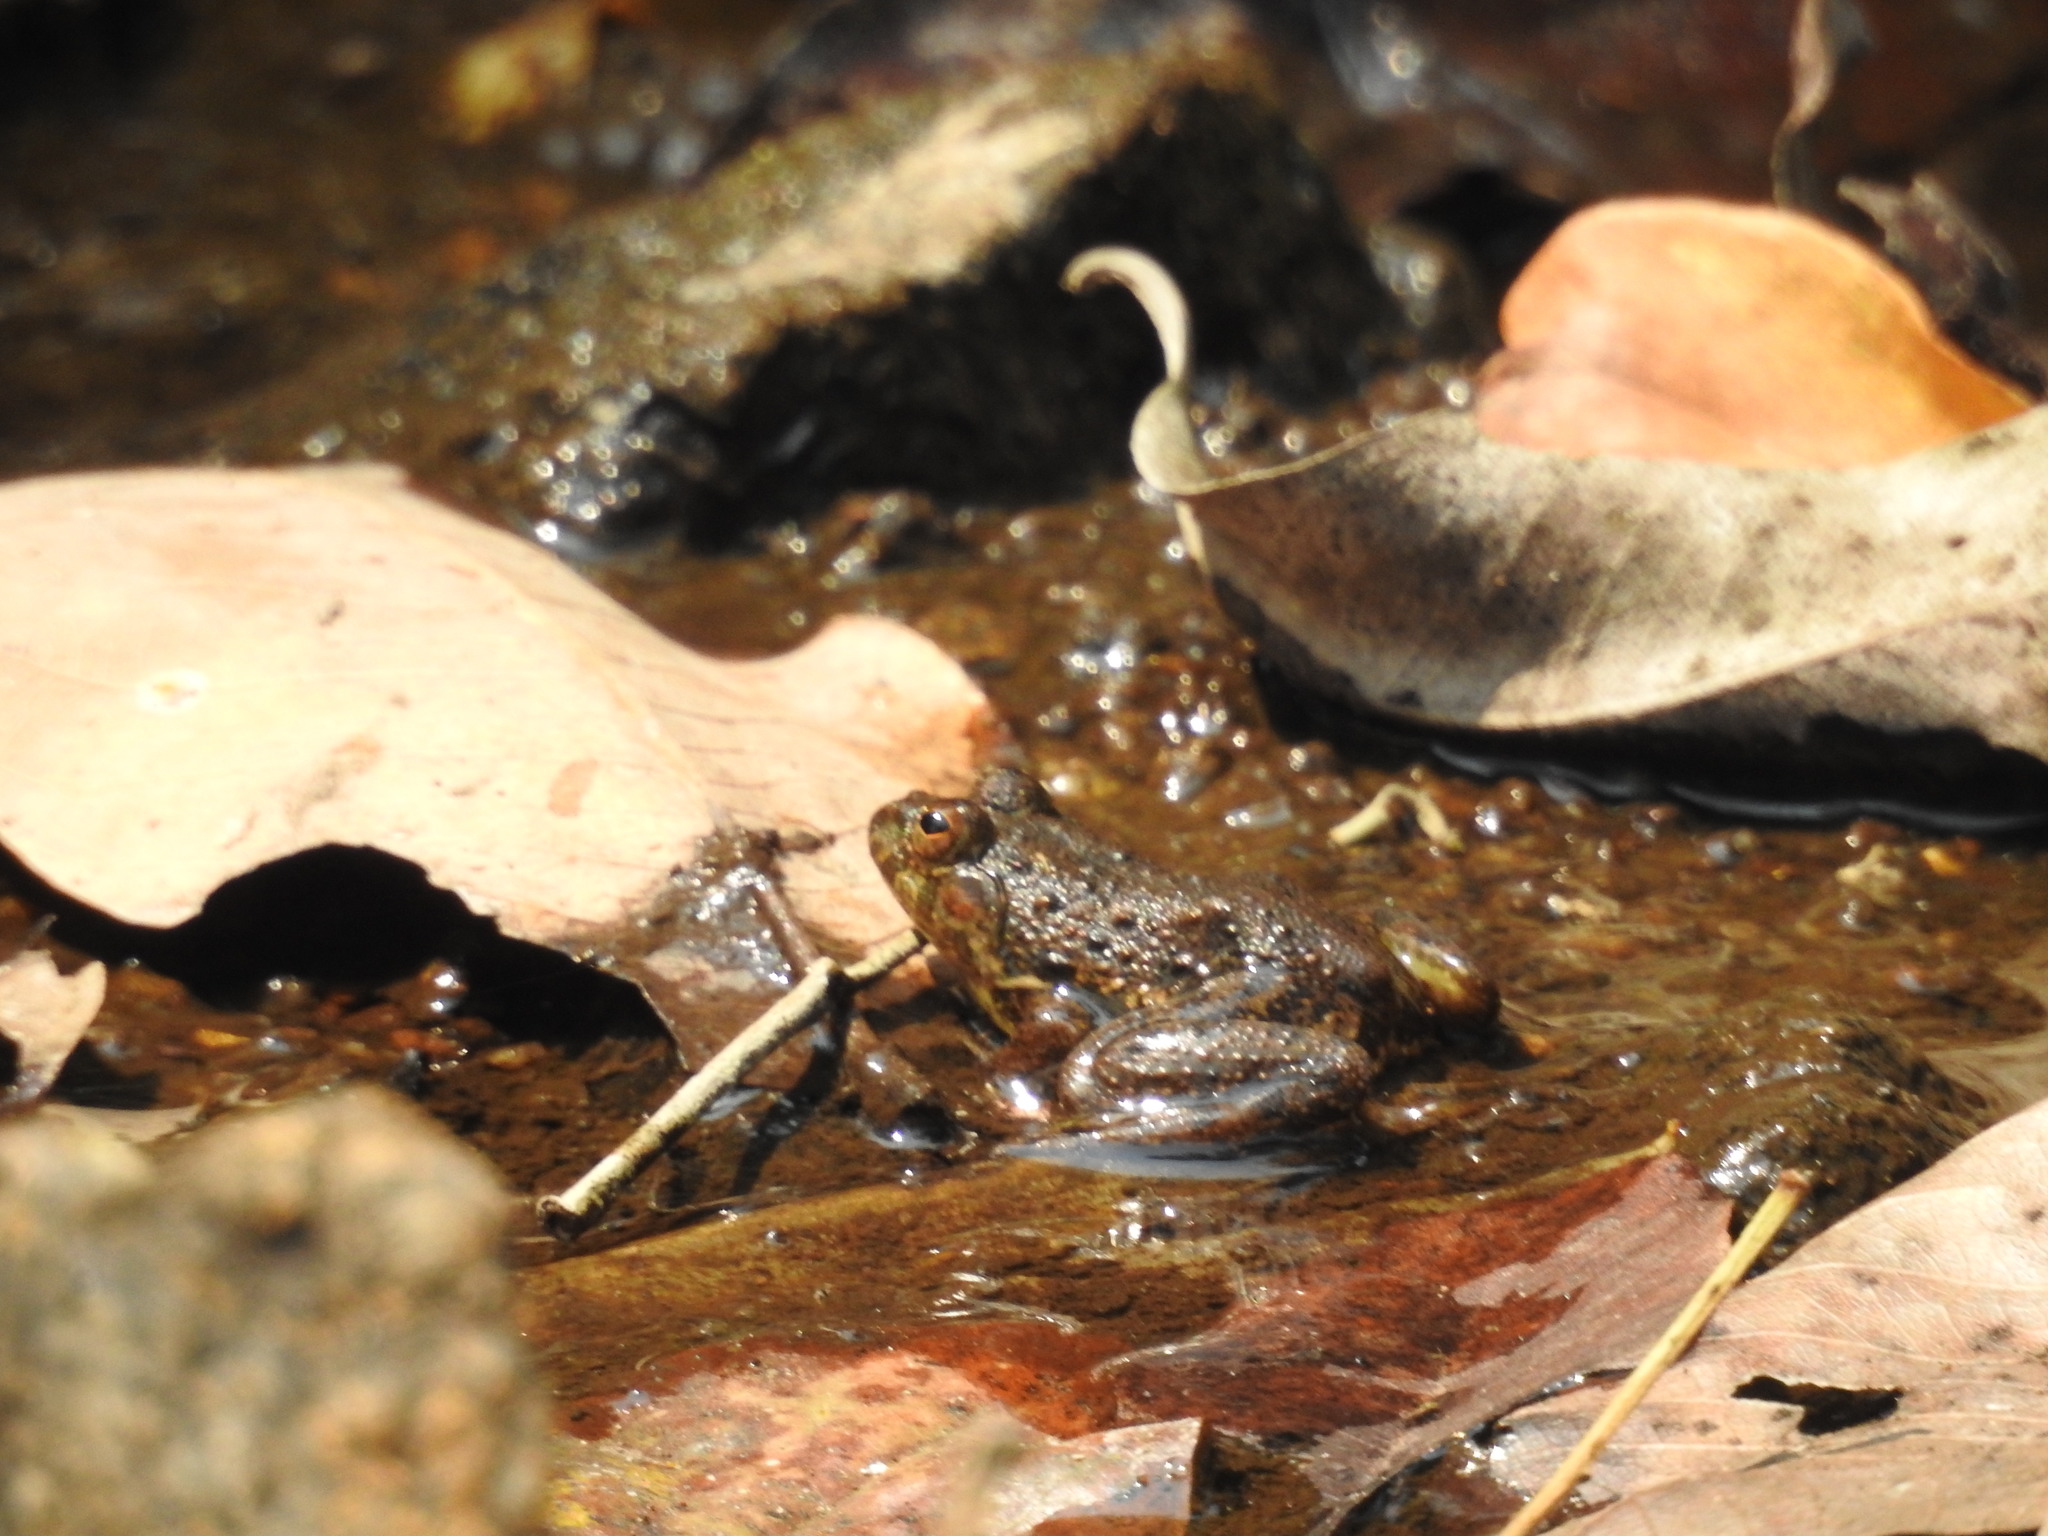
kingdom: Animalia
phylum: Chordata
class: Amphibia
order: Anura
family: Dicroglossidae
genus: Euphlyctis
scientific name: Euphlyctis cyanophlyctis
